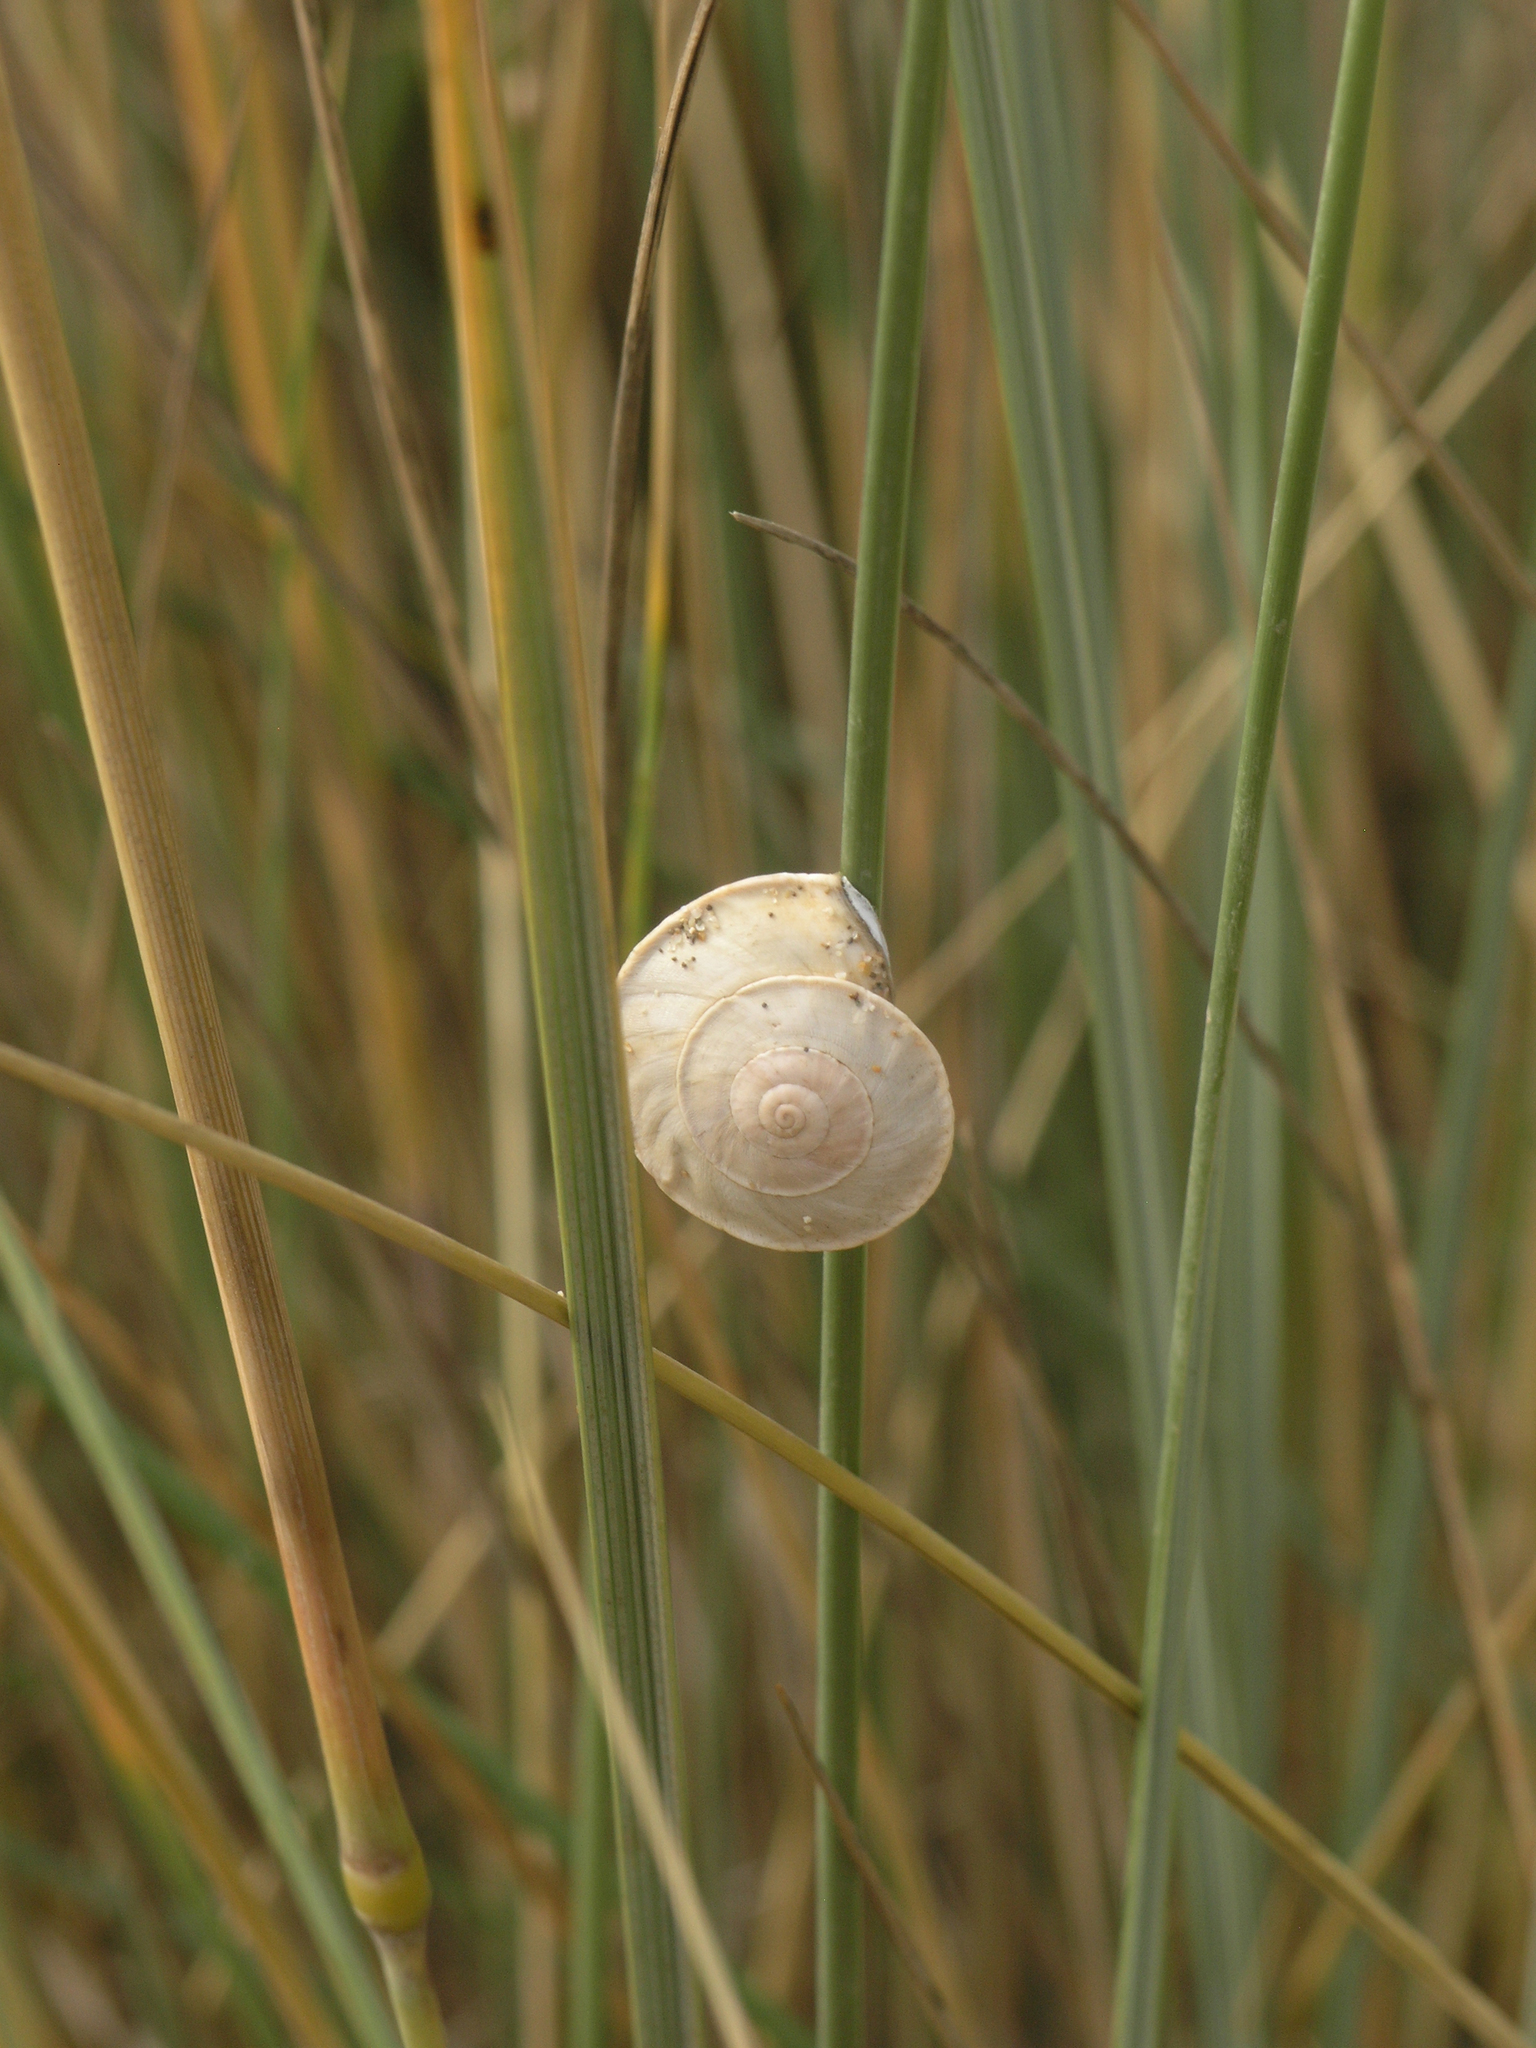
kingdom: Animalia
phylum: Mollusca
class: Gastropoda
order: Stylommatophora
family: Helicidae
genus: Theba
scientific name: Theba subdentata
